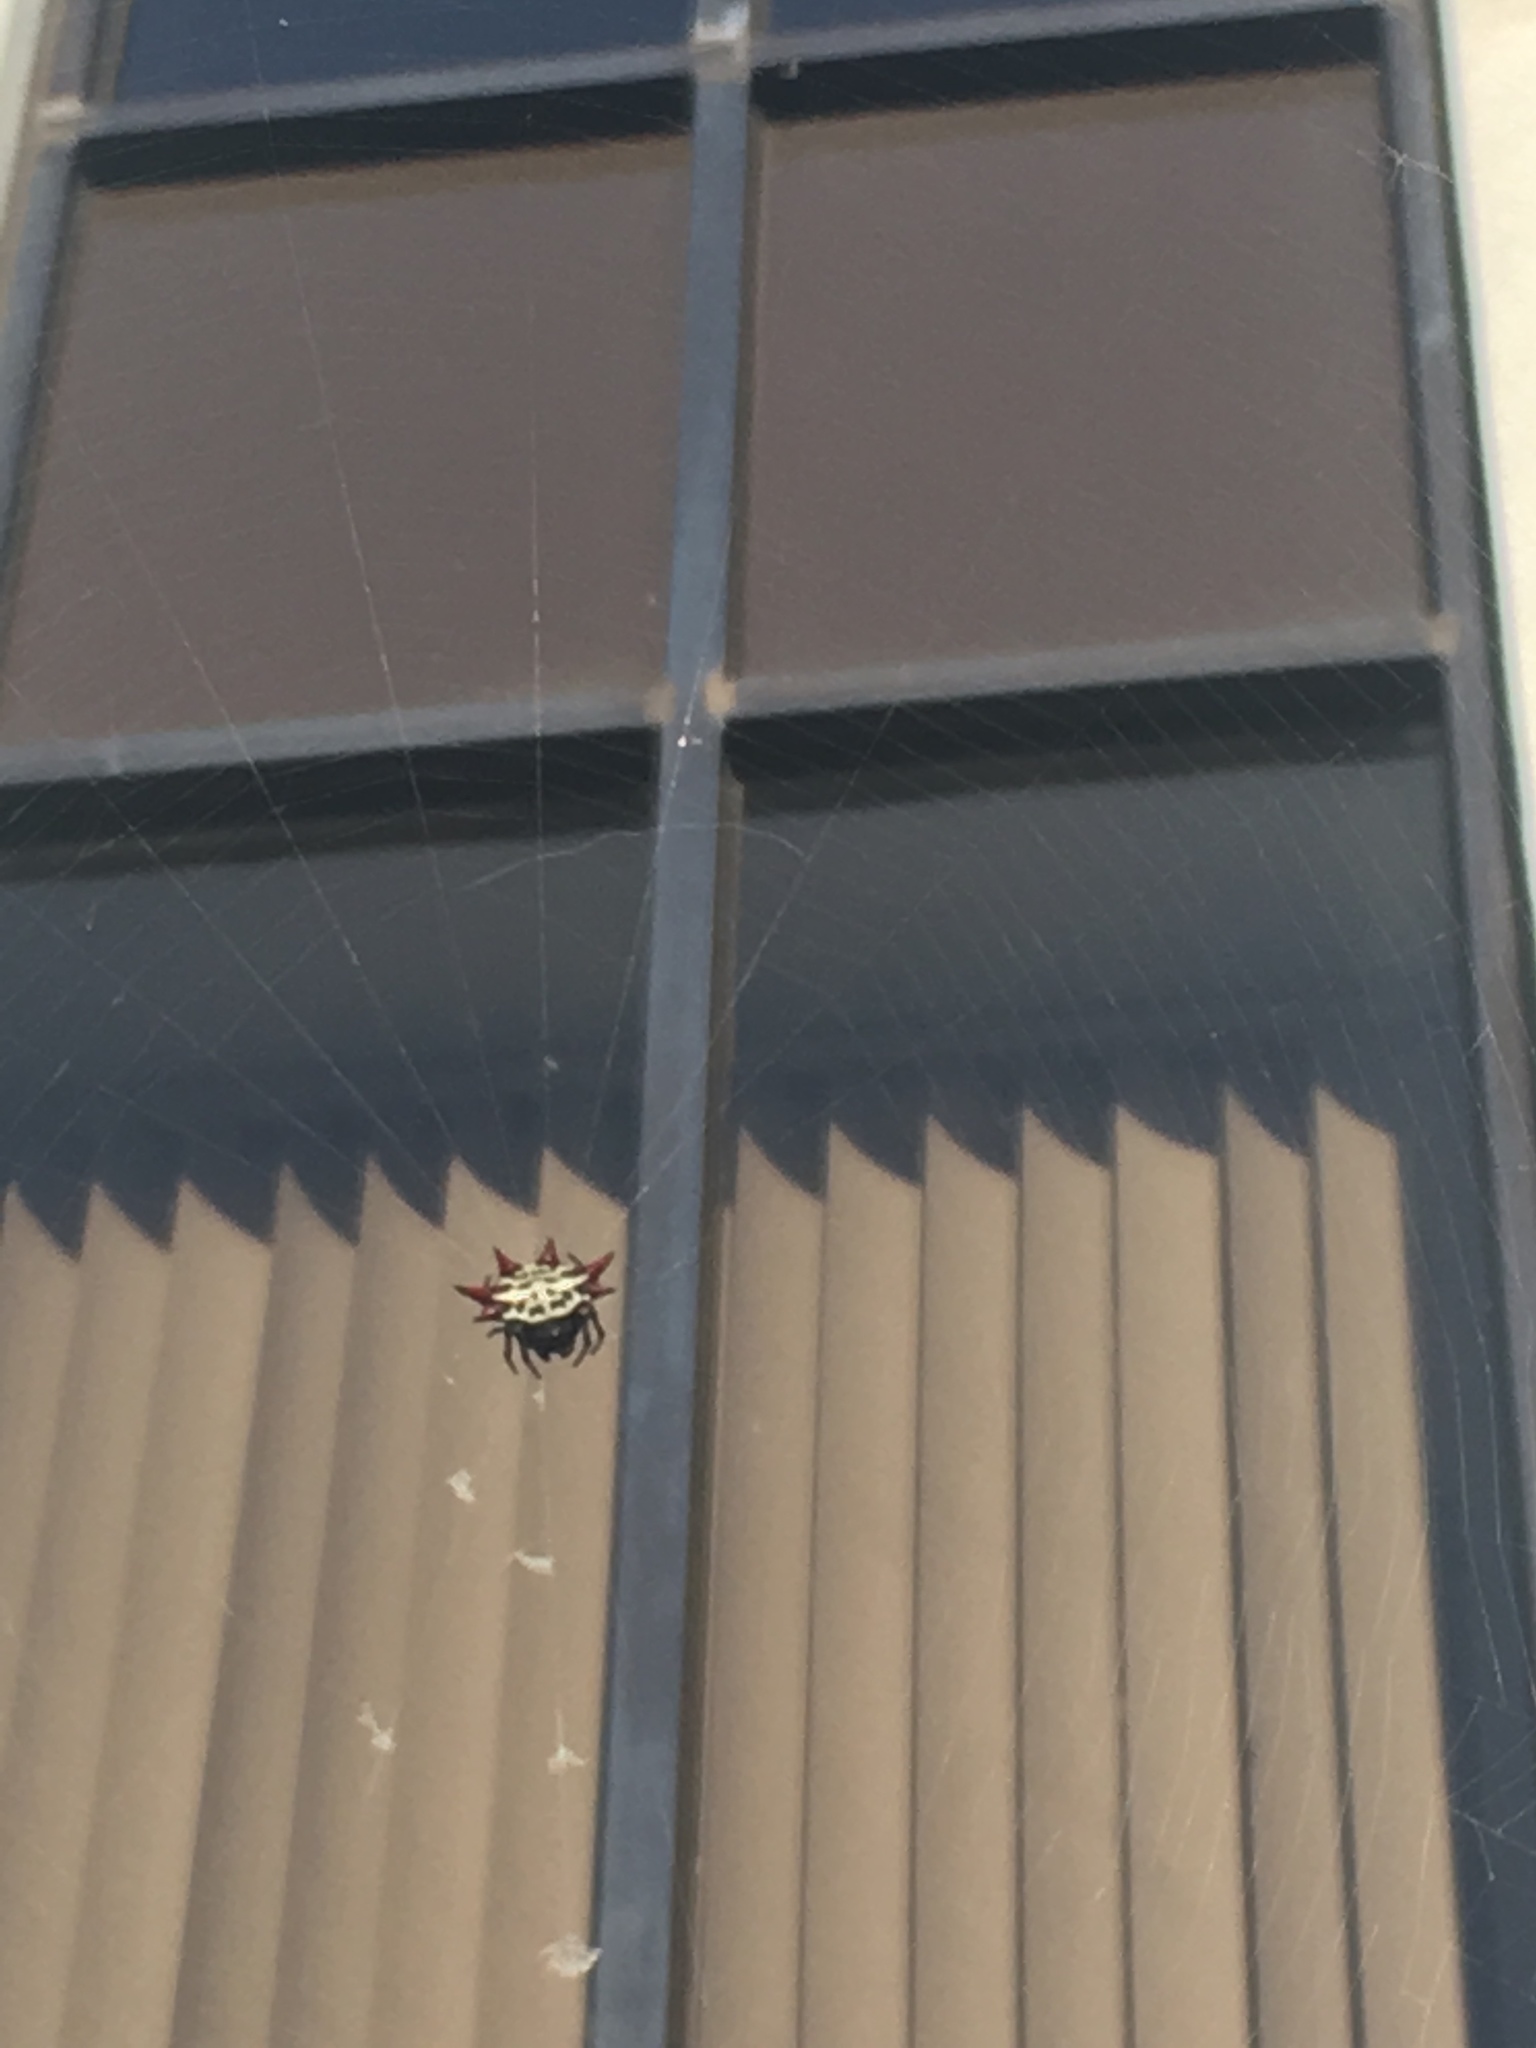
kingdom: Animalia
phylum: Arthropoda
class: Arachnida
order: Araneae
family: Araneidae
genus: Gasteracantha
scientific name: Gasteracantha cancriformis
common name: Orb weavers
